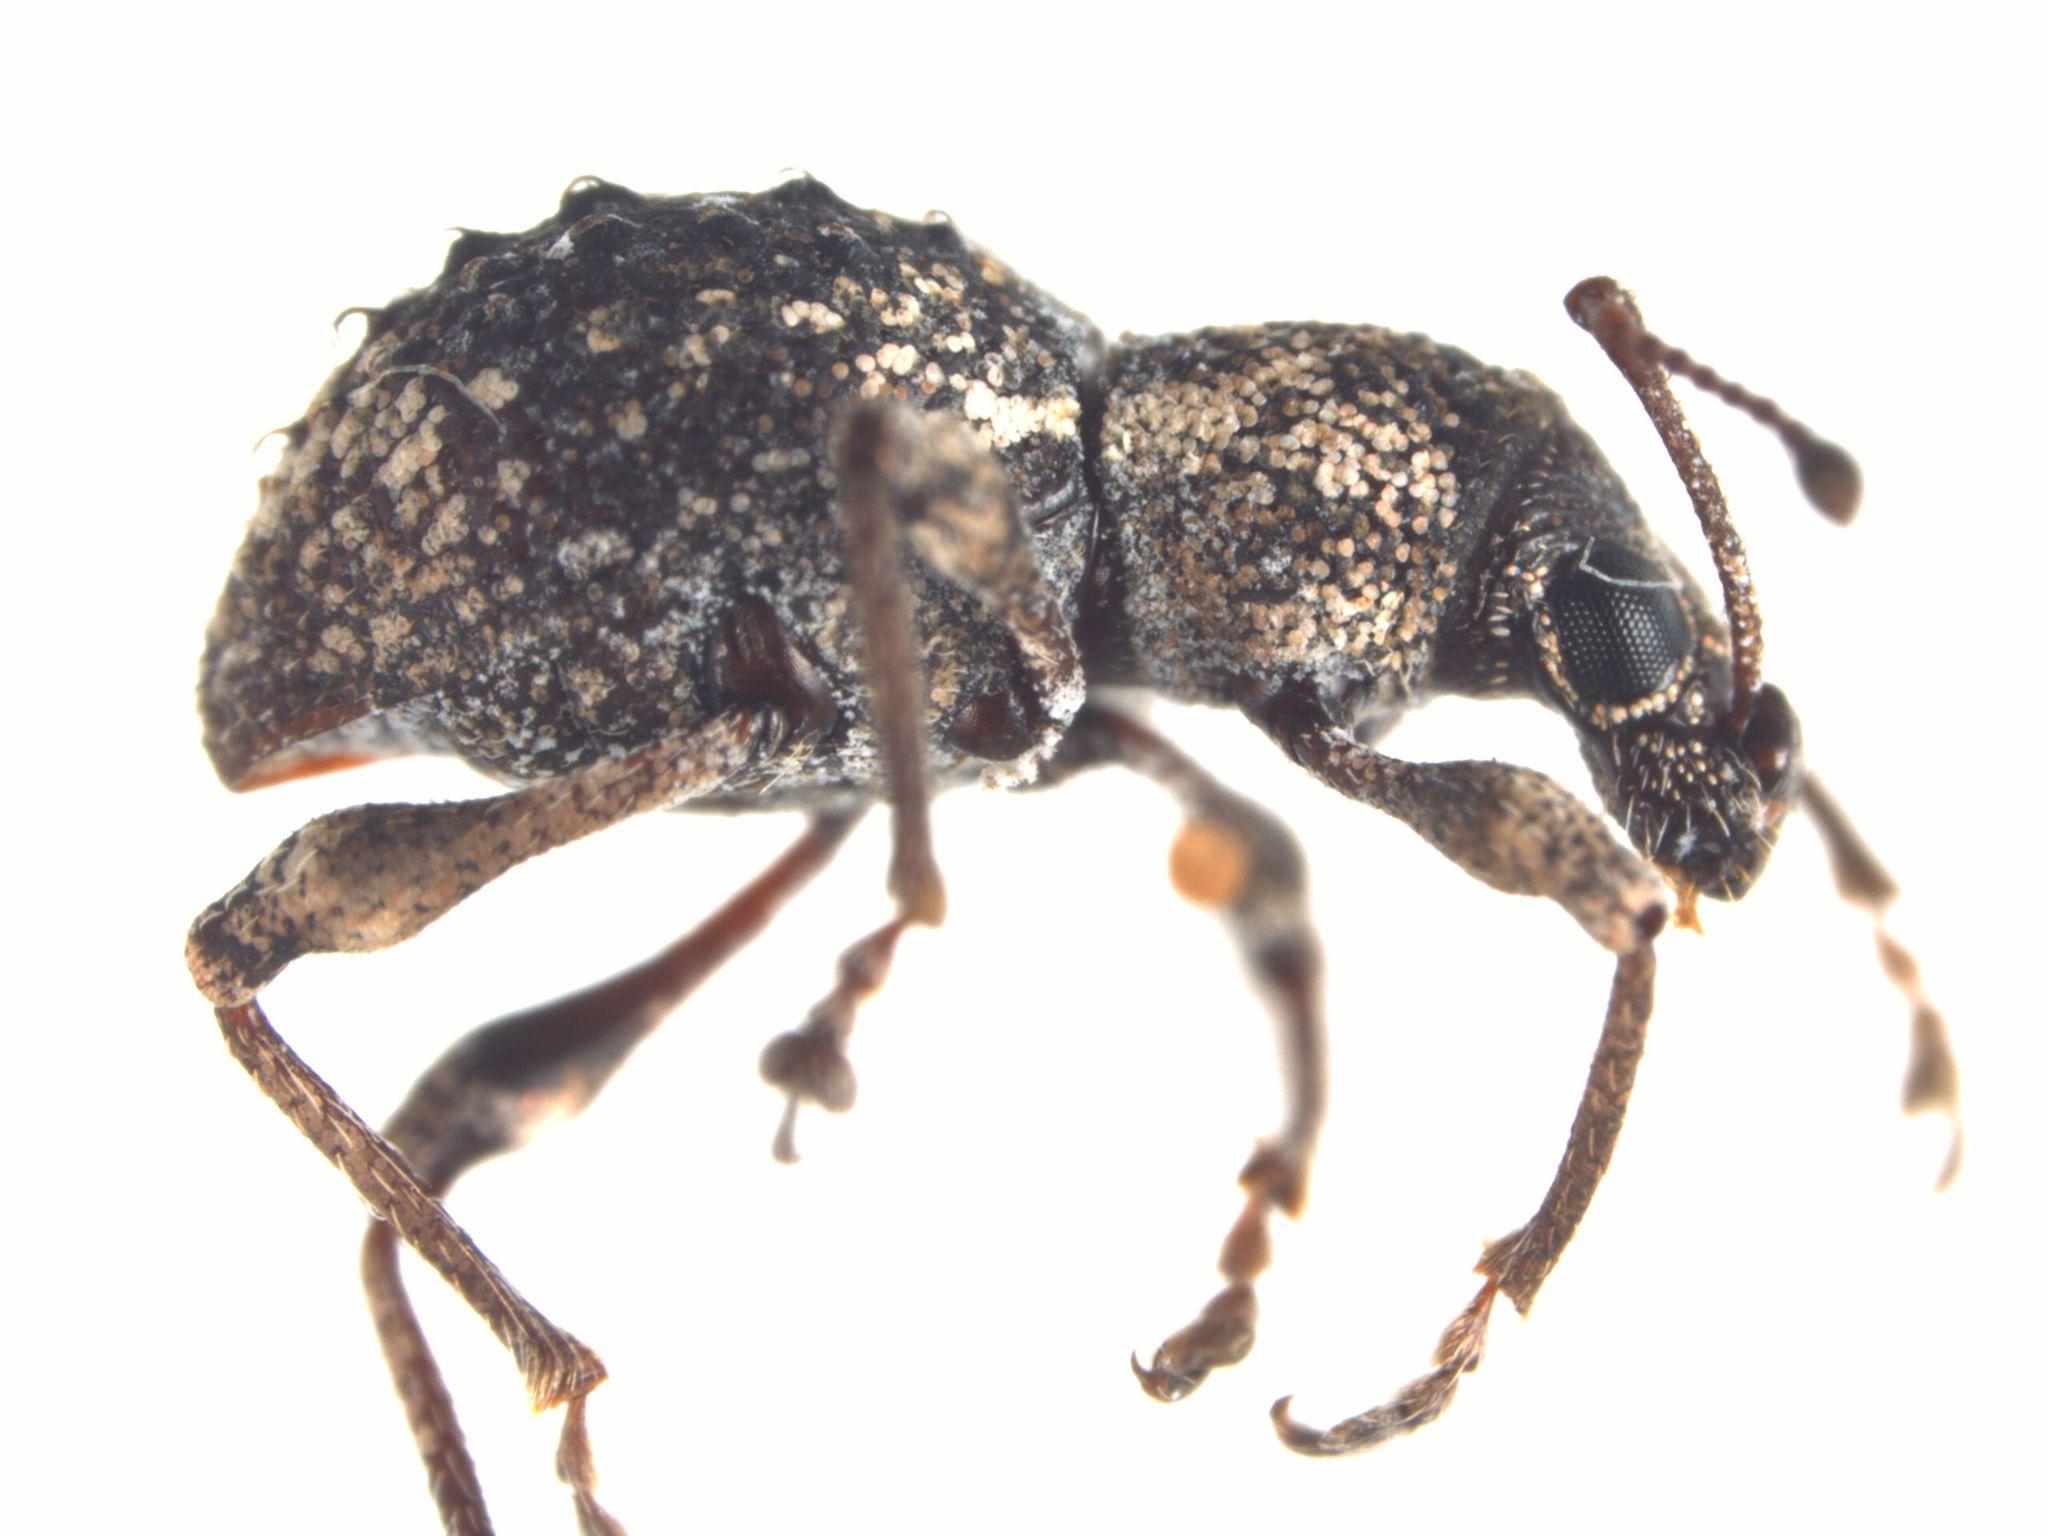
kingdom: Animalia
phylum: Arthropoda
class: Insecta
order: Coleoptera
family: Curculionidae
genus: Sphaeropterus
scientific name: Sphaeropterus
